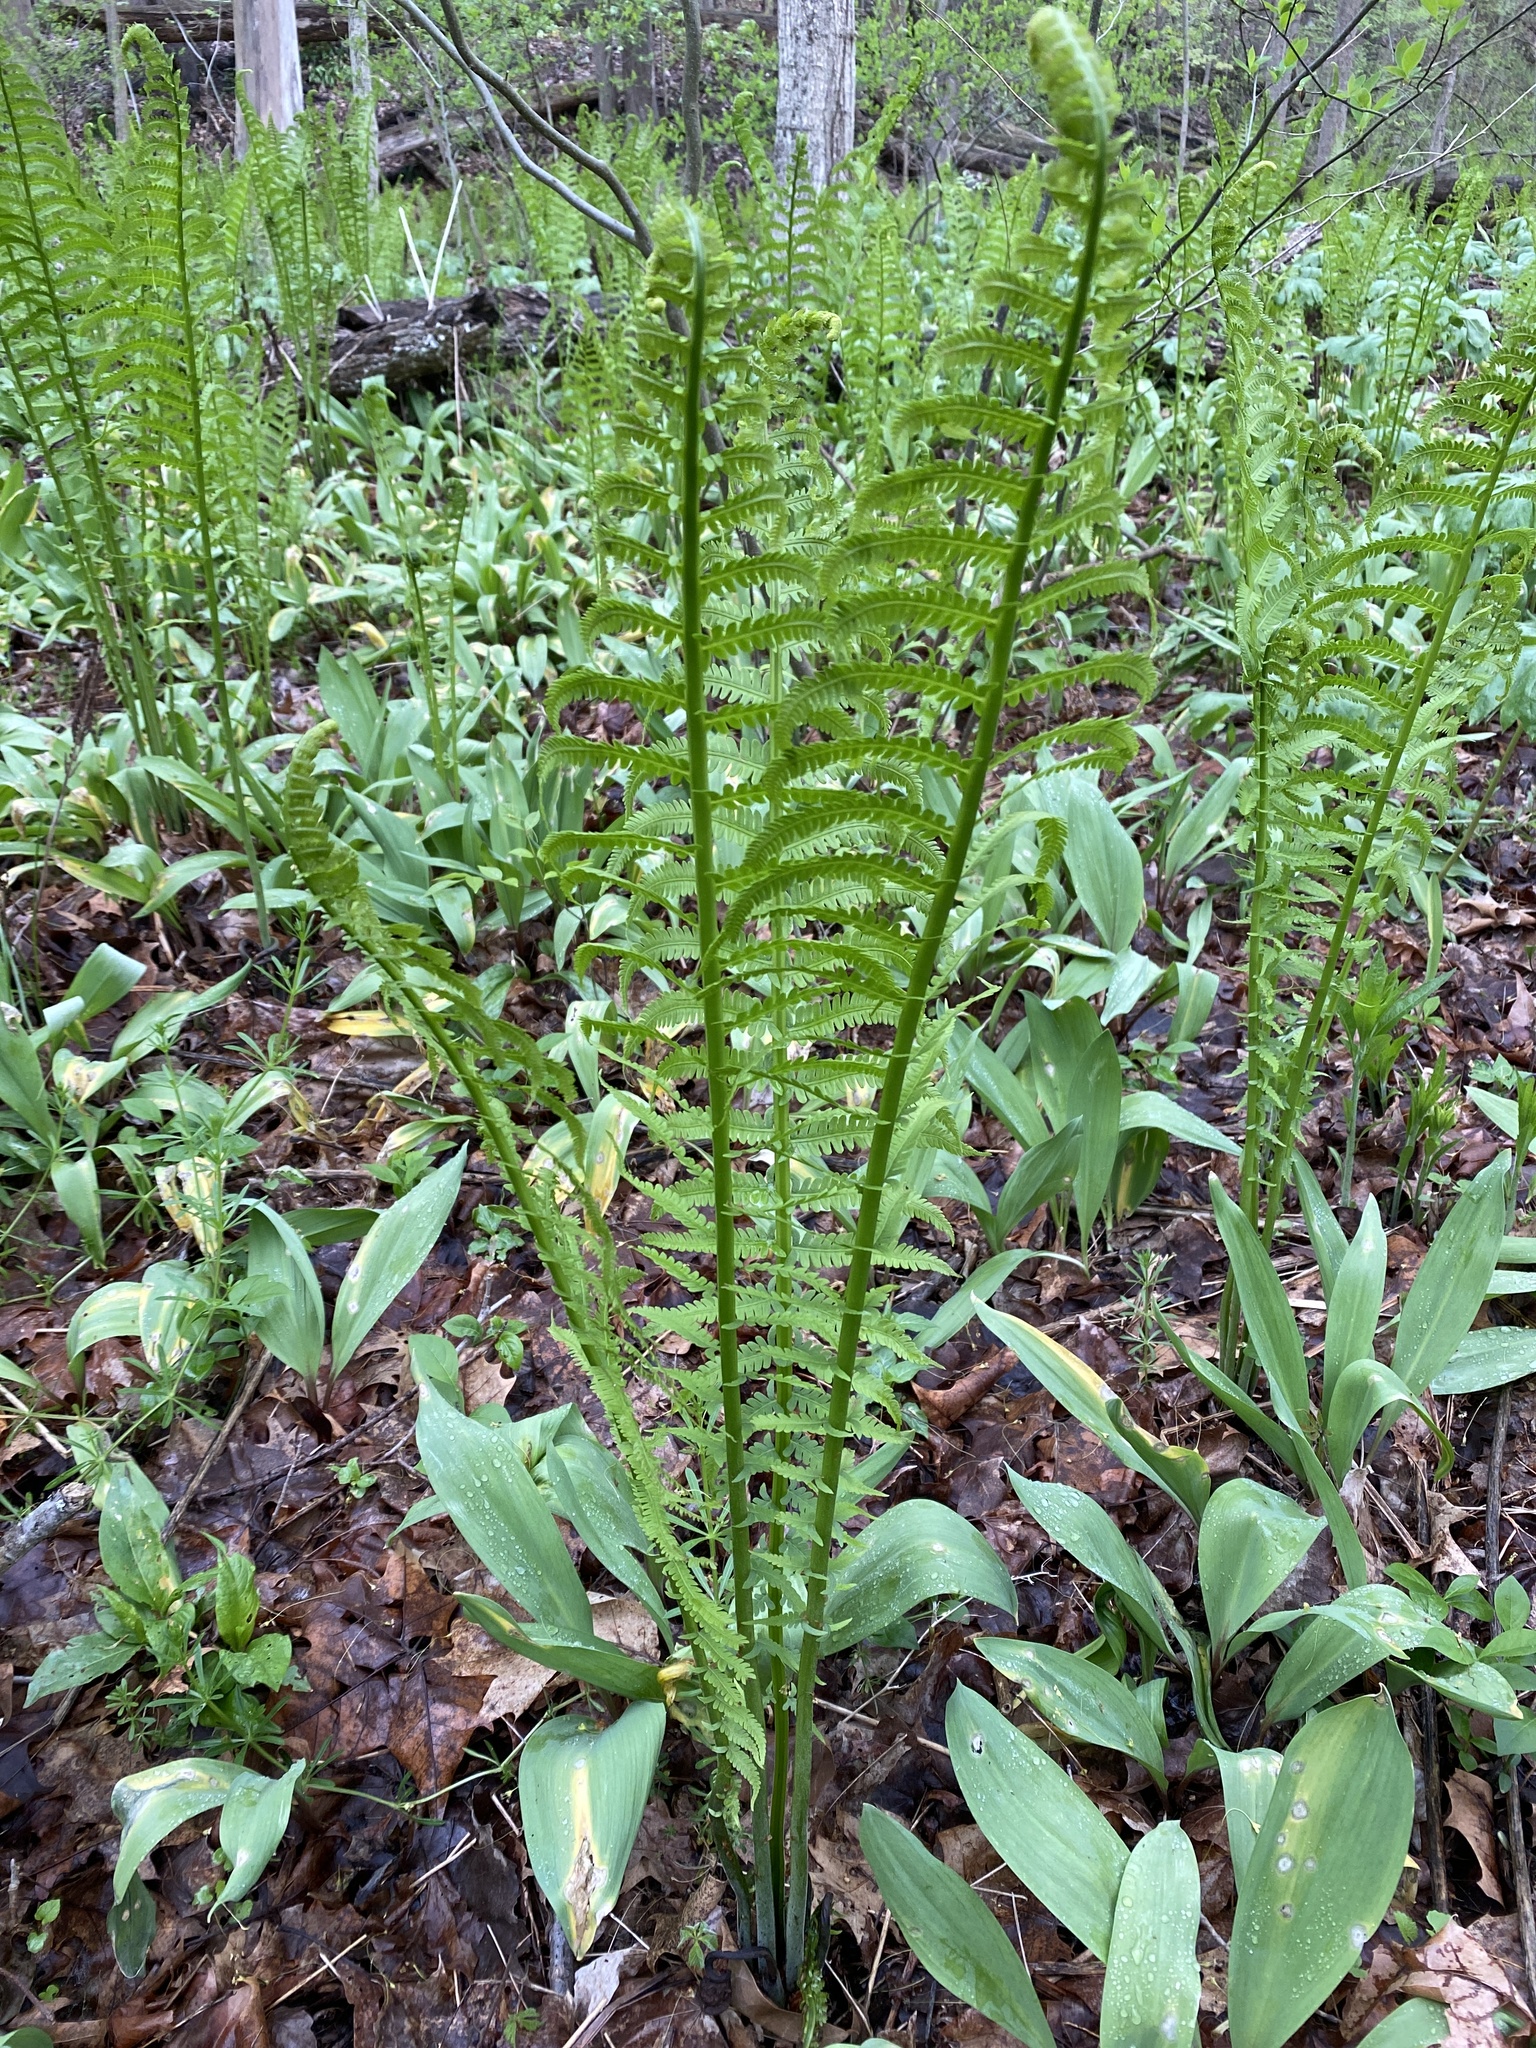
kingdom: Plantae
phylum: Tracheophyta
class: Polypodiopsida
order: Polypodiales
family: Onocleaceae
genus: Matteuccia
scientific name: Matteuccia struthiopteris
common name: Ostrich fern
